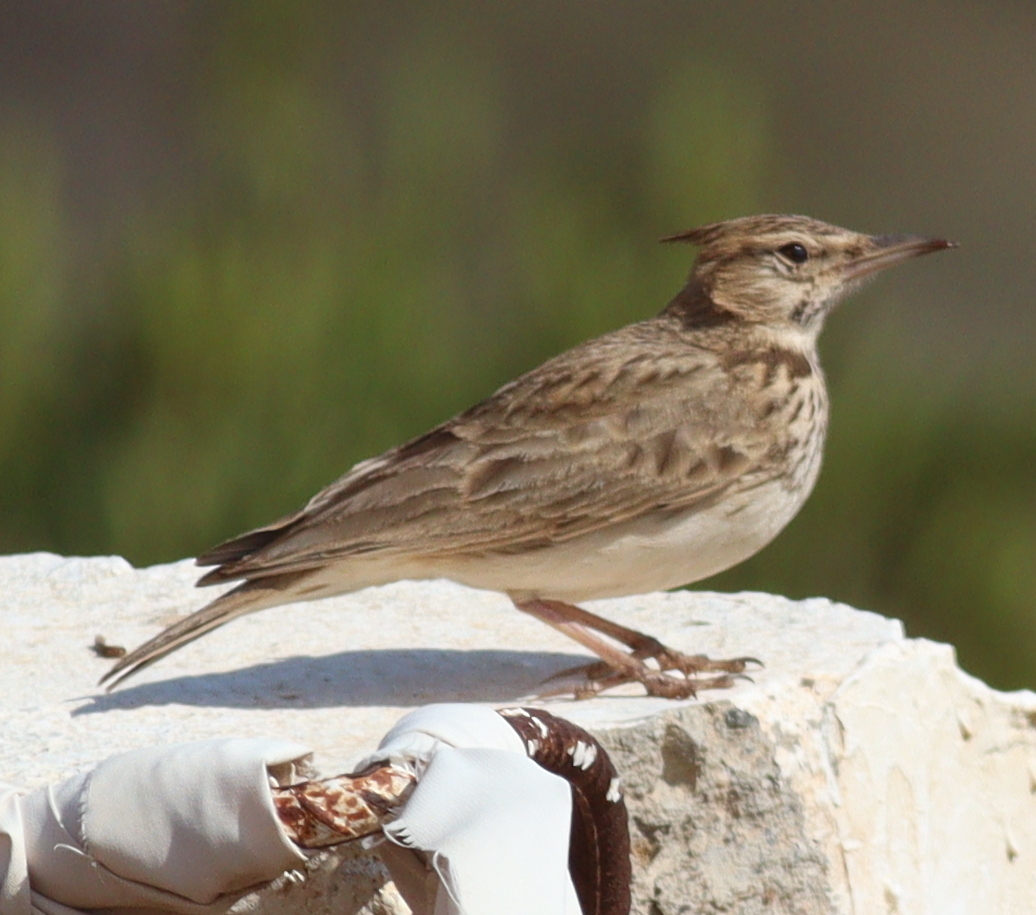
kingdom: Animalia
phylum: Chordata
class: Aves
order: Passeriformes
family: Alaudidae
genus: Galerida
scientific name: Galerida cristata
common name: Crested lark
